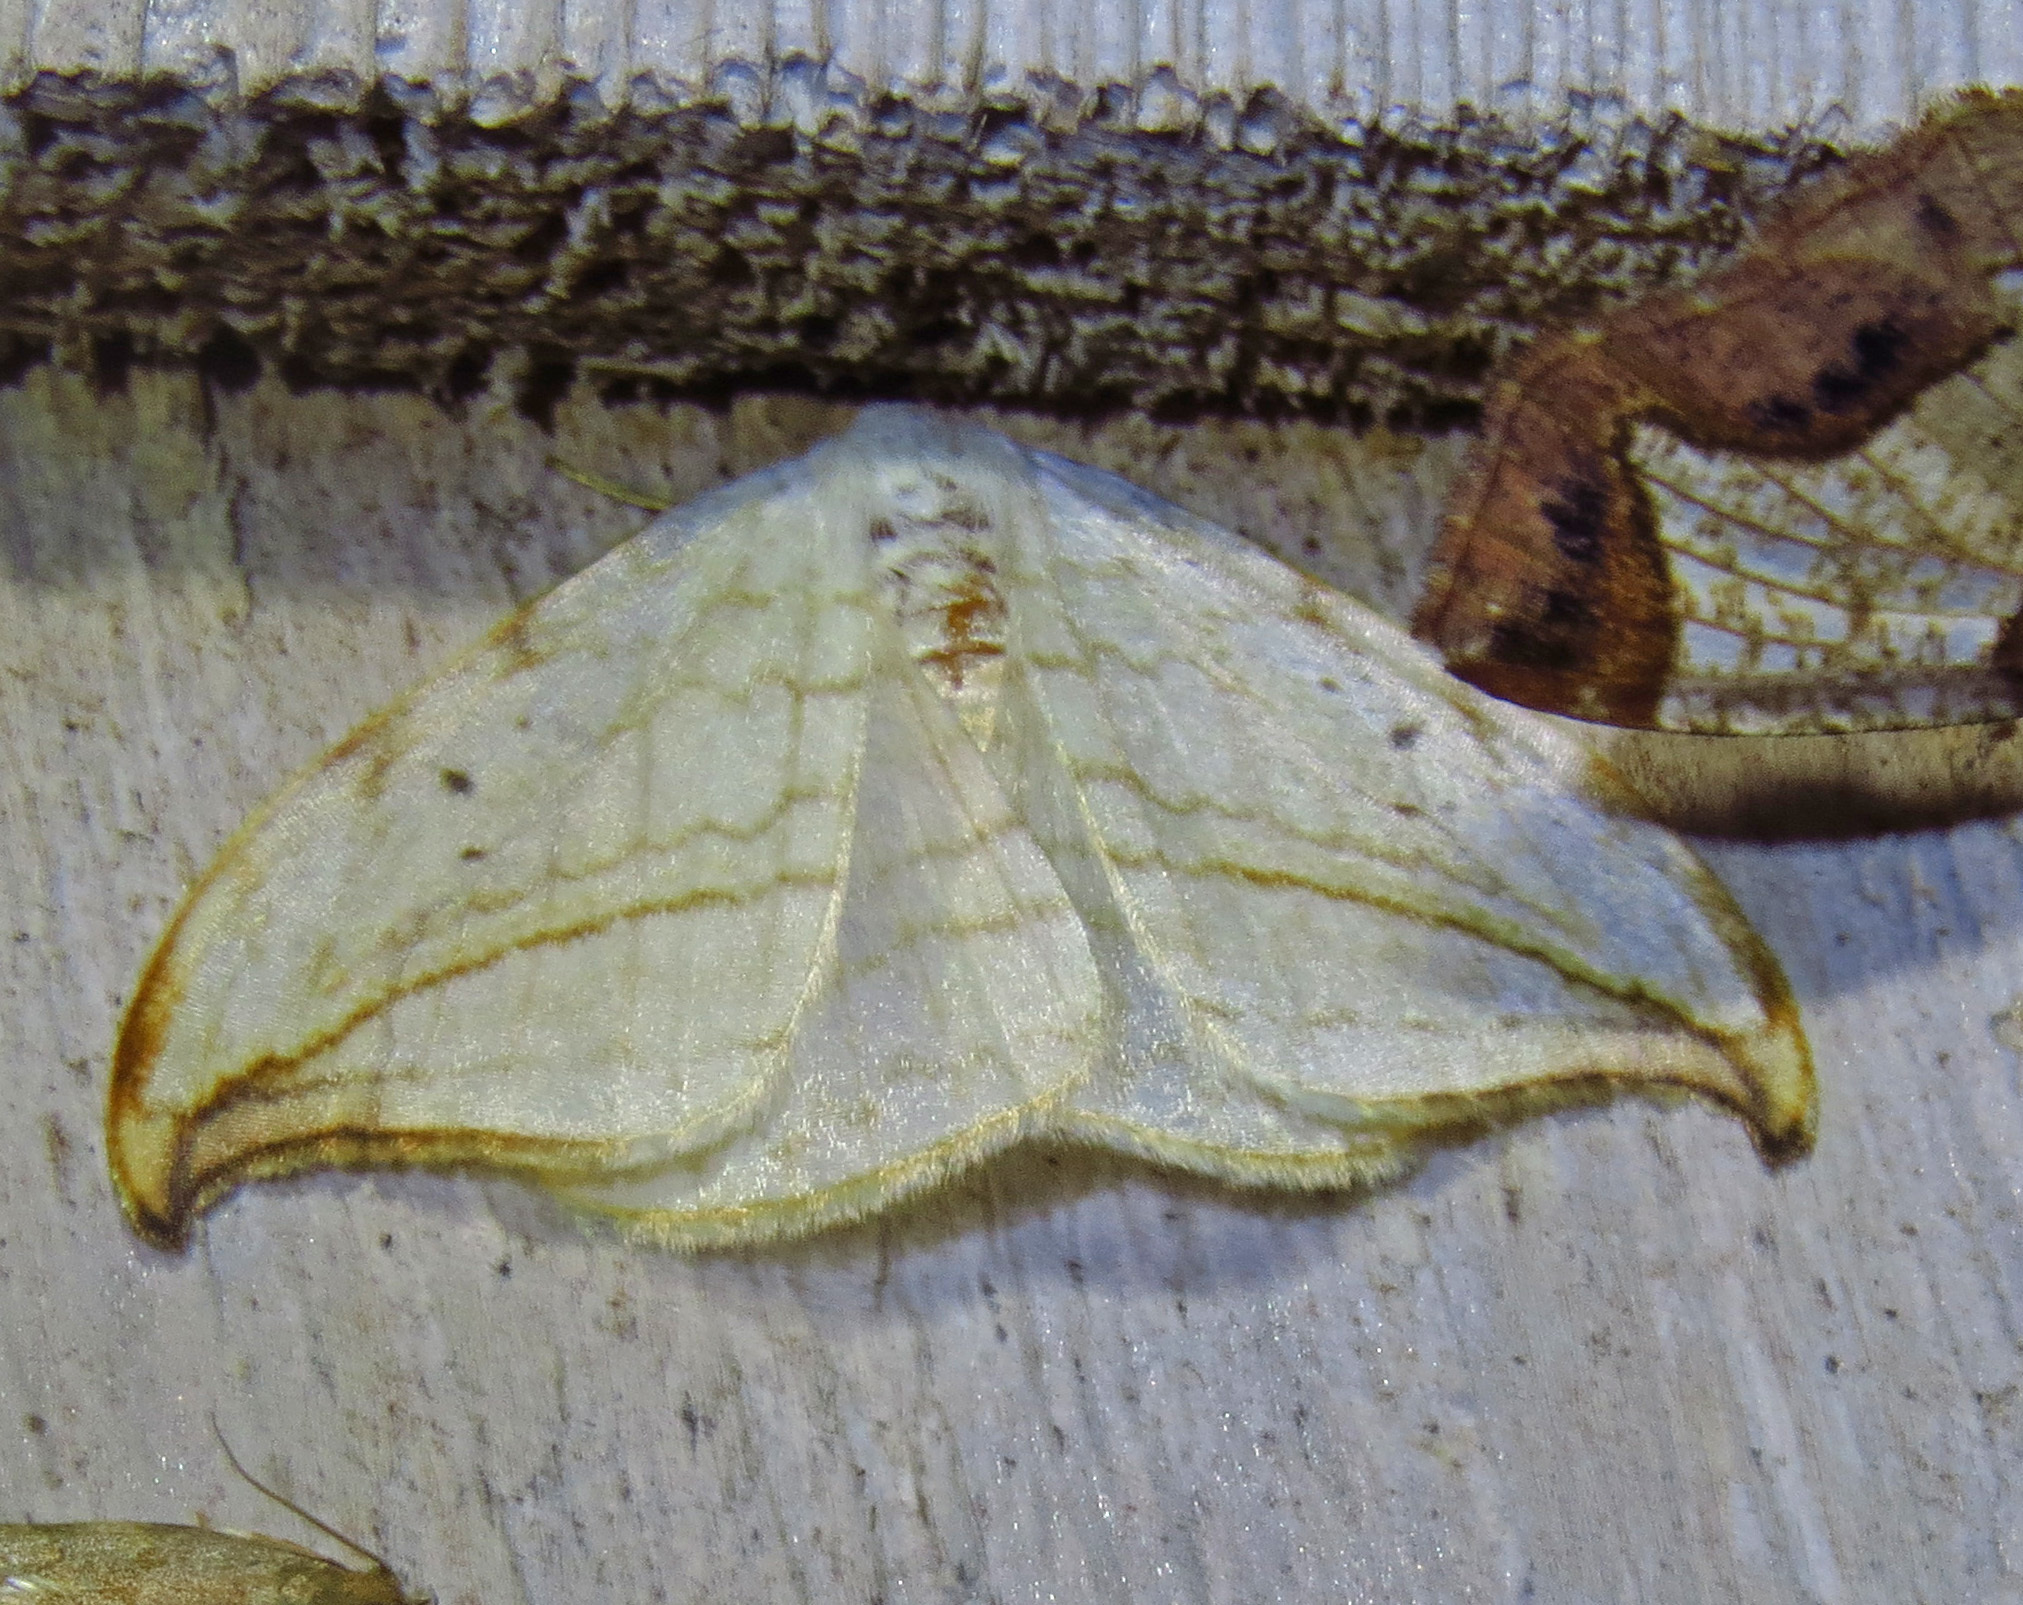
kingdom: Animalia
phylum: Arthropoda
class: Insecta
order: Lepidoptera
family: Drepanidae
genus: Drepana
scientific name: Drepana arcuata
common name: Arched hooktip moth
